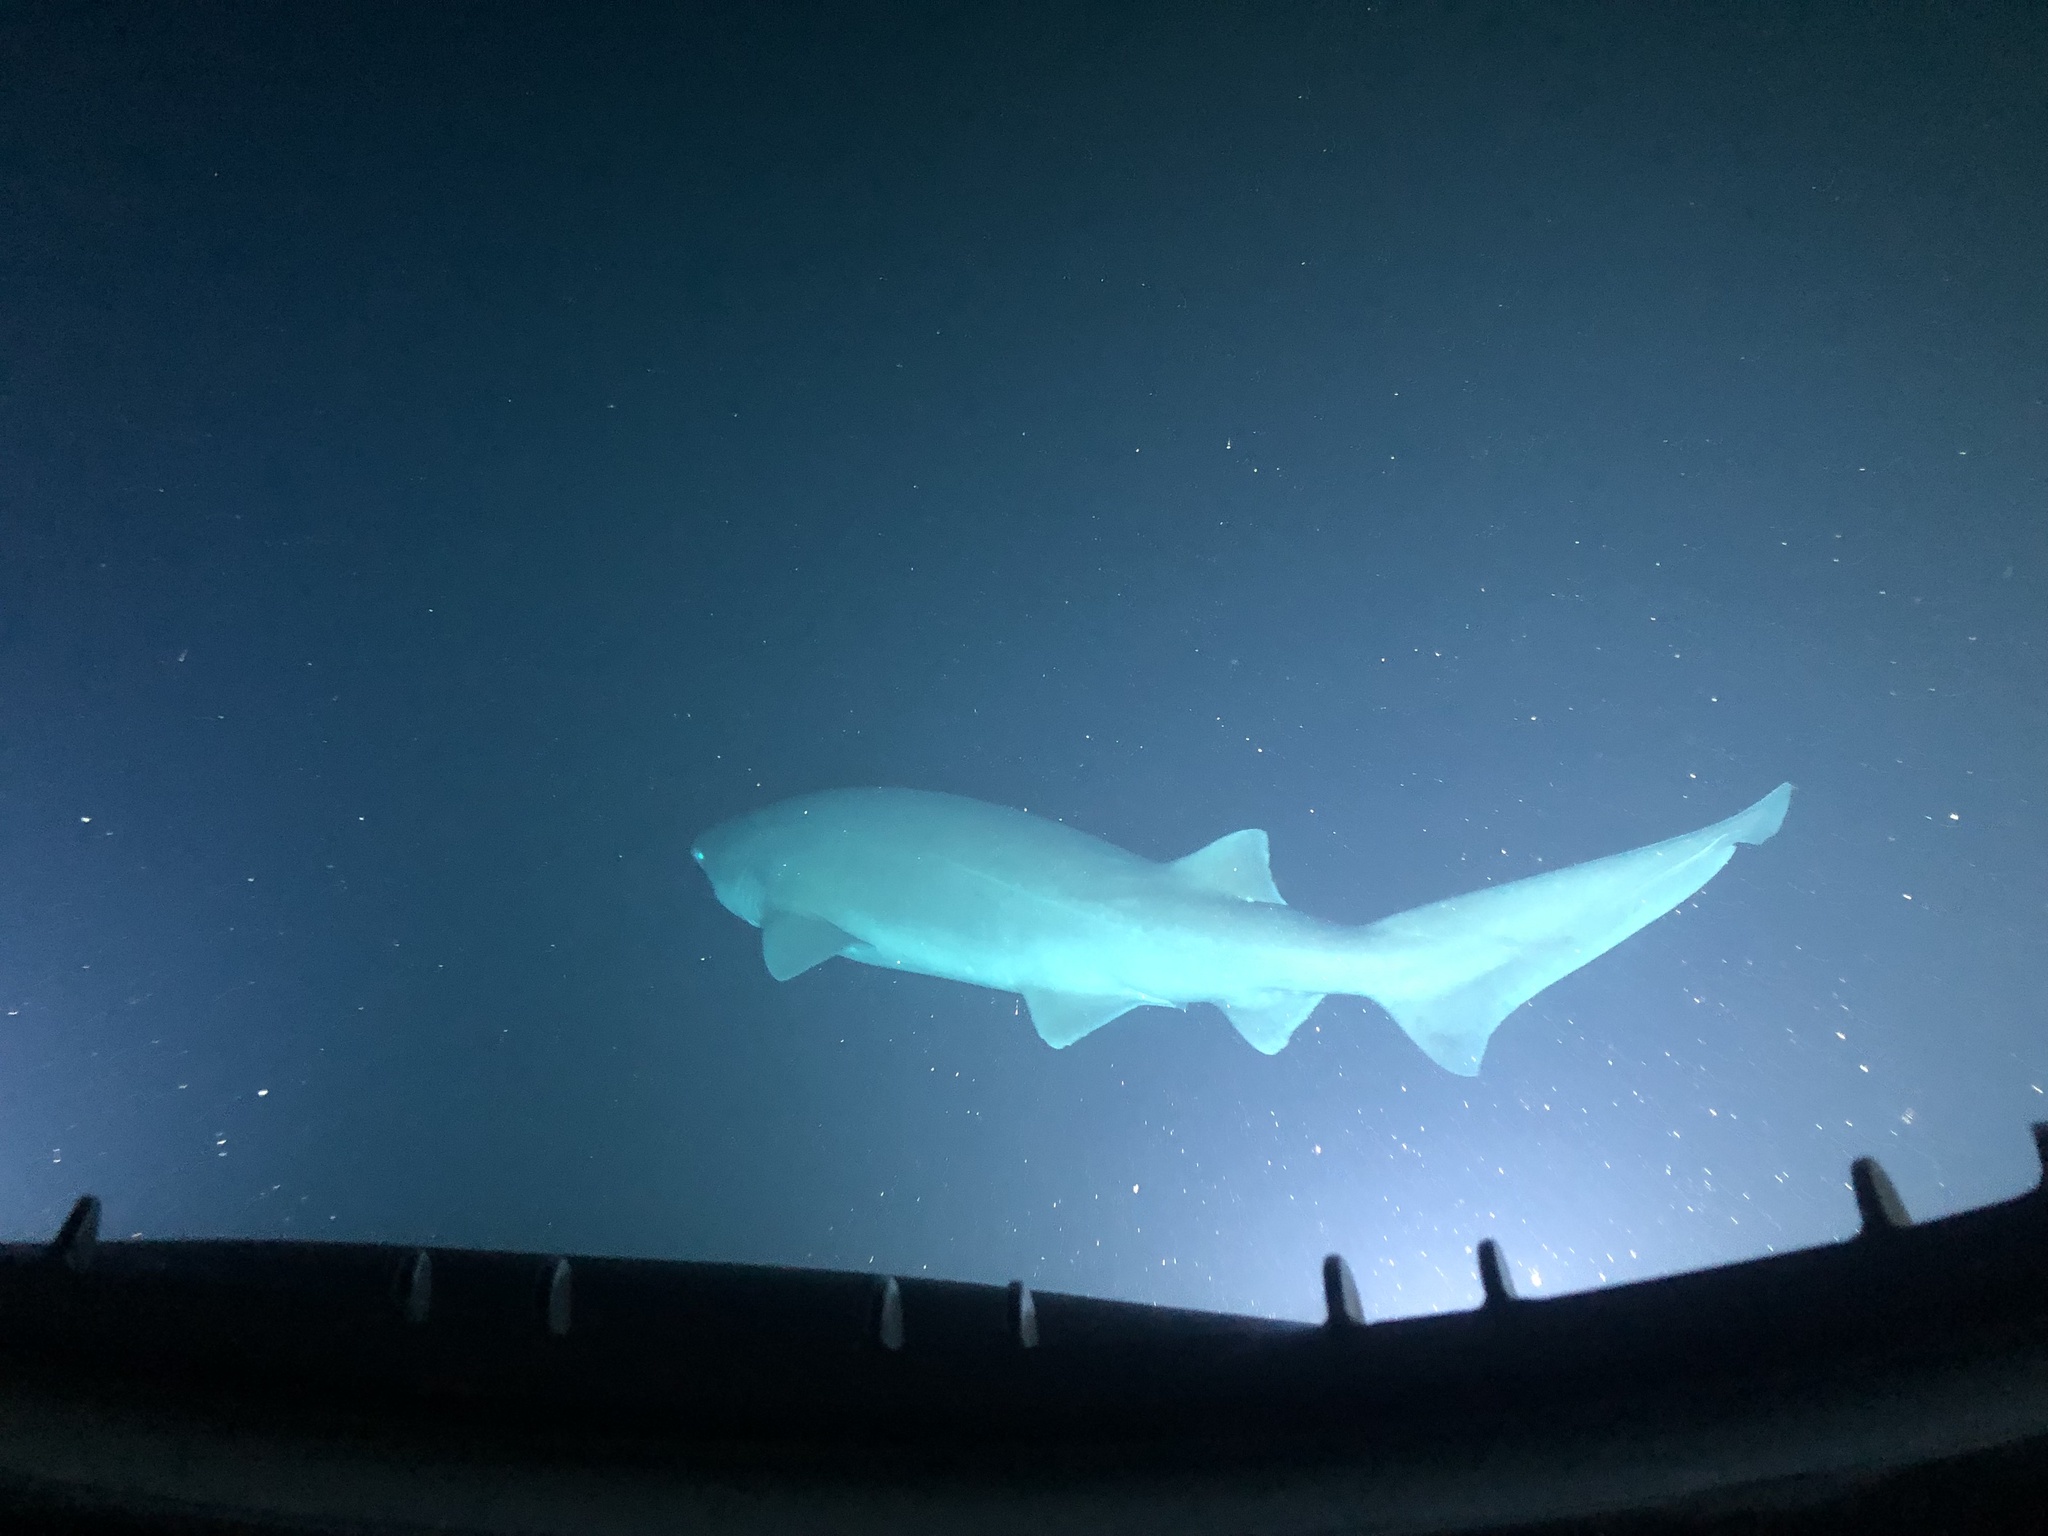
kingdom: Animalia
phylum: Chordata
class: Elasmobranchii
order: Hexanchiformes
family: Hexanchidae
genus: Hexanchus
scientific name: Hexanchus griseus
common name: Bluntnose sixgill shark
